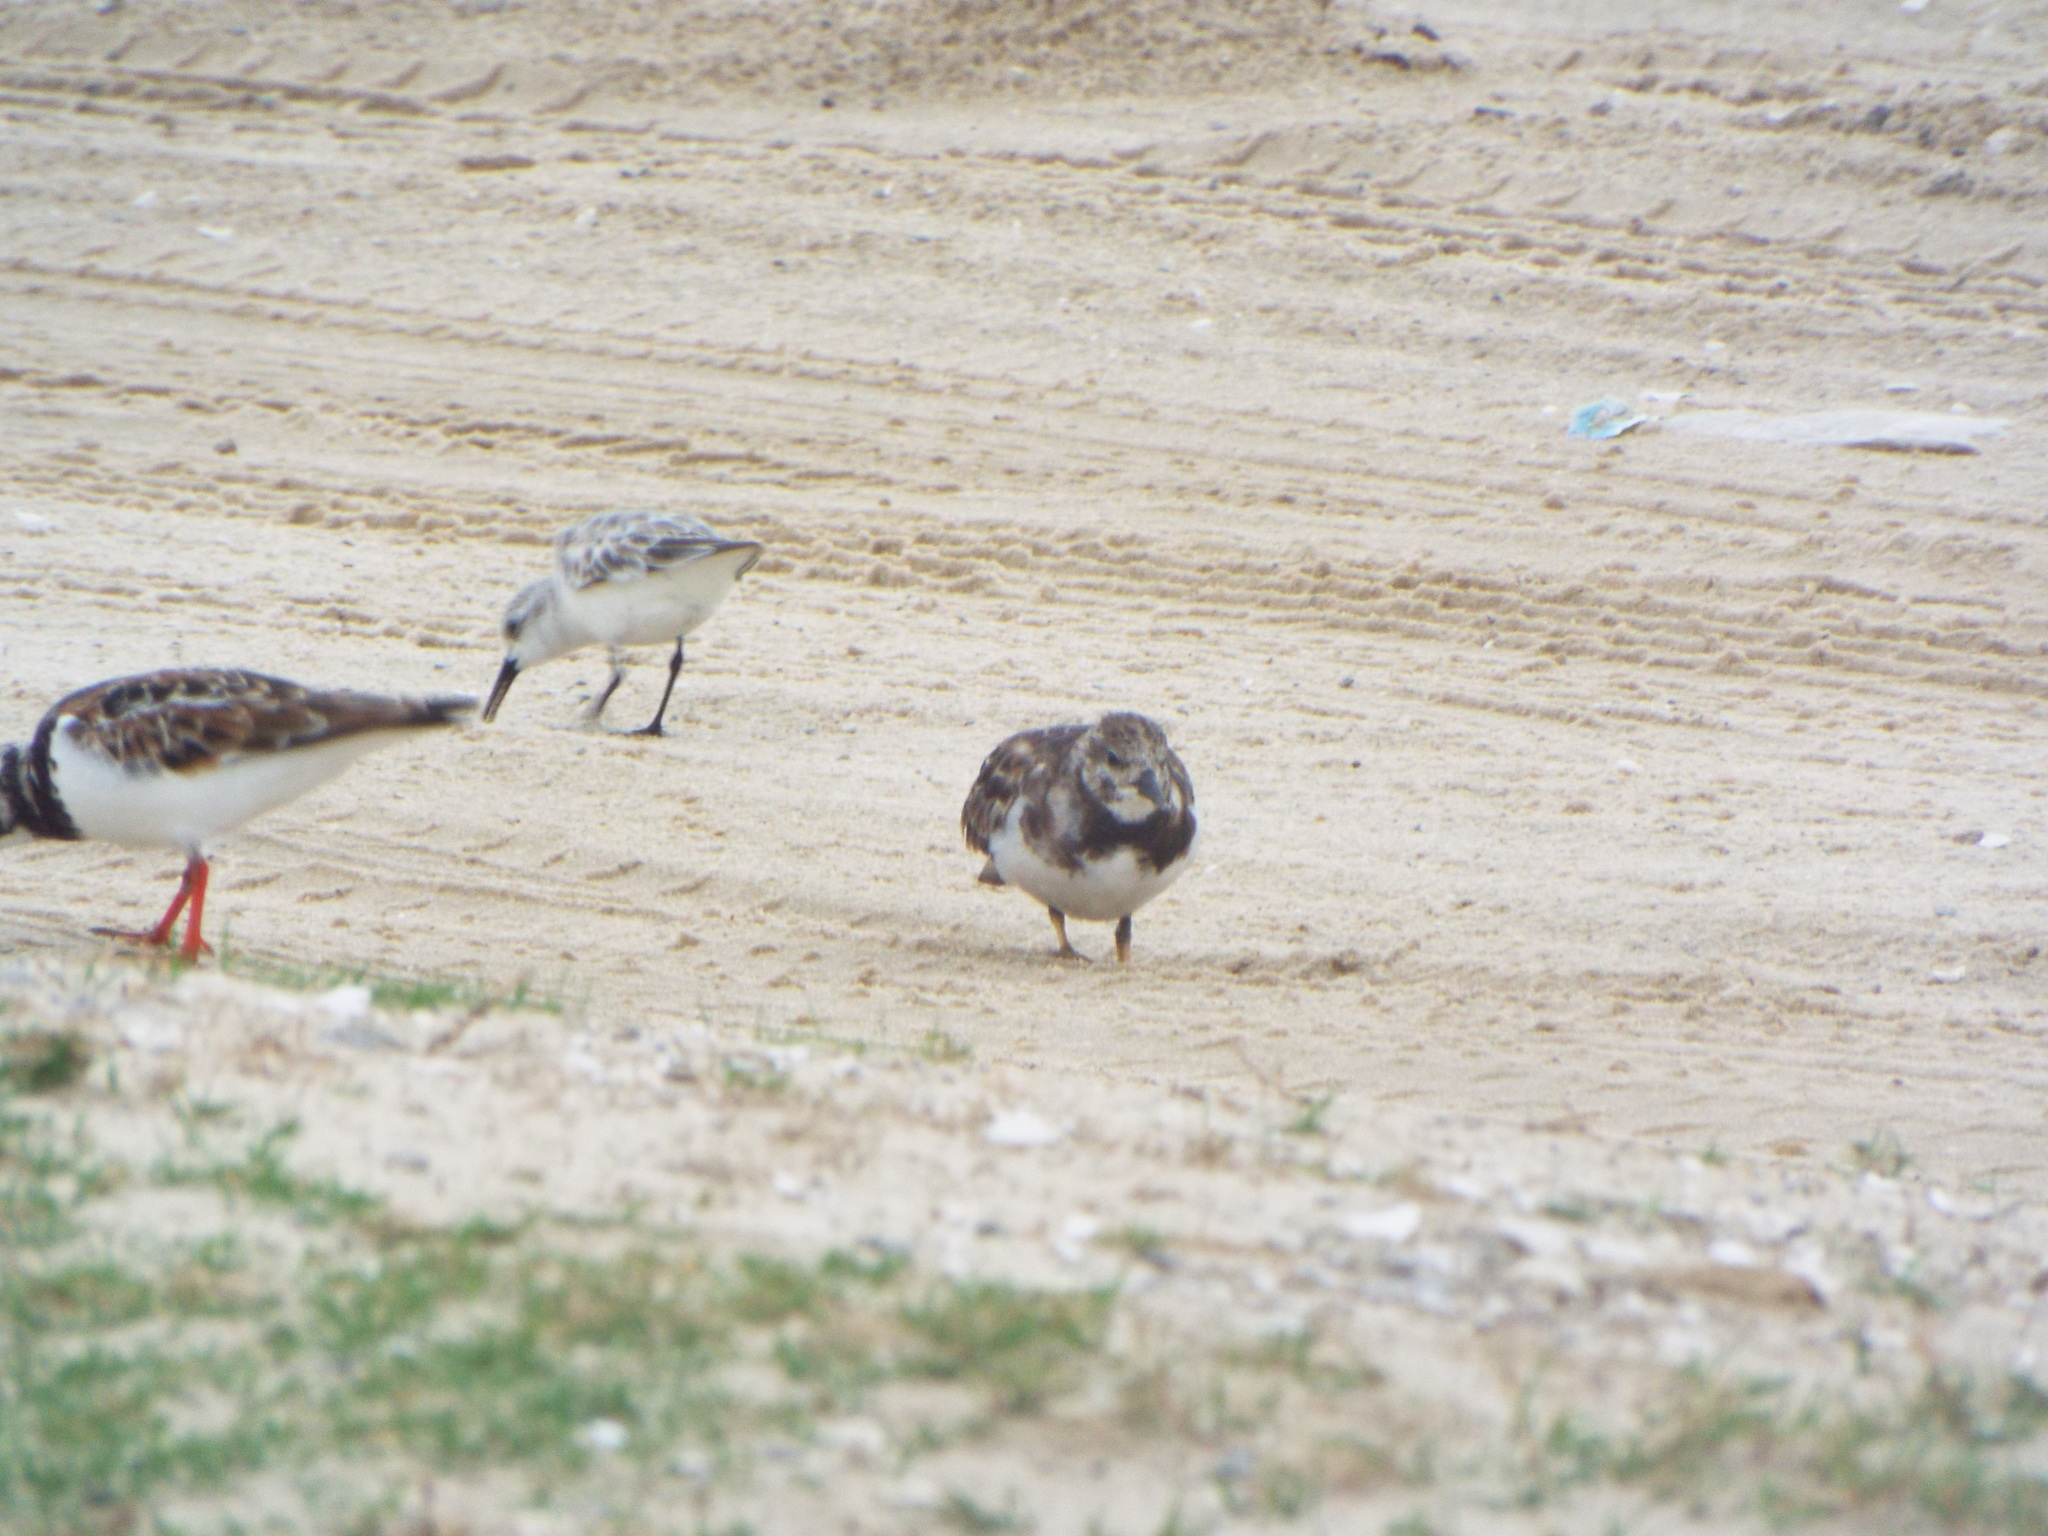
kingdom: Animalia
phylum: Chordata
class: Aves
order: Charadriiformes
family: Scolopacidae
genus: Arenaria
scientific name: Arenaria interpres
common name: Ruddy turnstone
